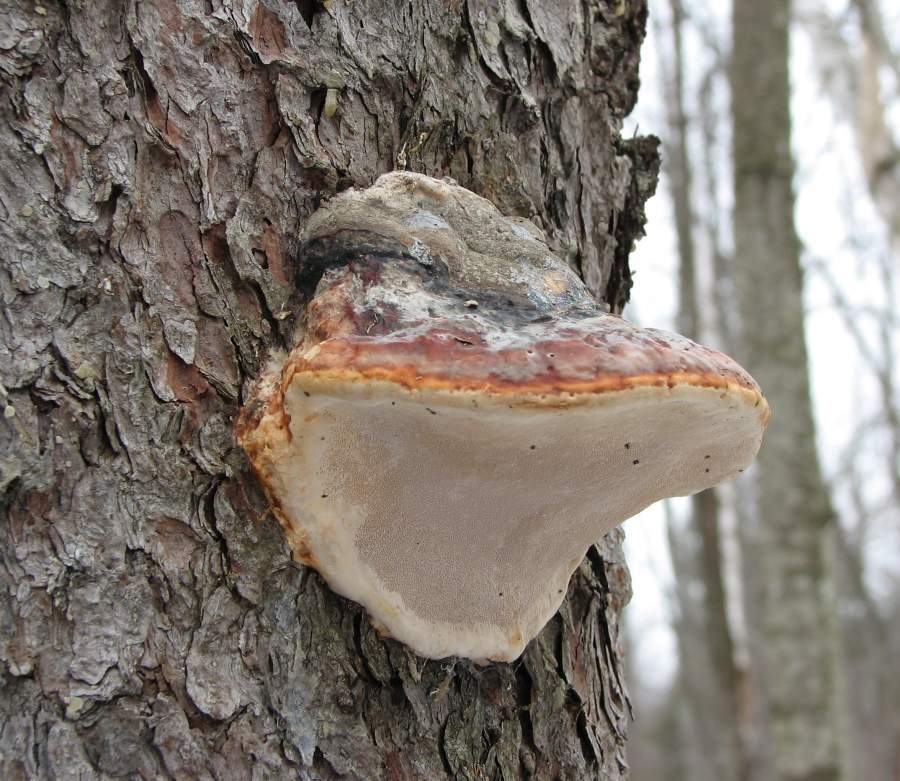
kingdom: Fungi
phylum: Basidiomycota
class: Agaricomycetes
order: Polyporales
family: Fomitopsidaceae
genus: Fomitopsis
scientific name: Fomitopsis mounceae
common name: Northern red belt
